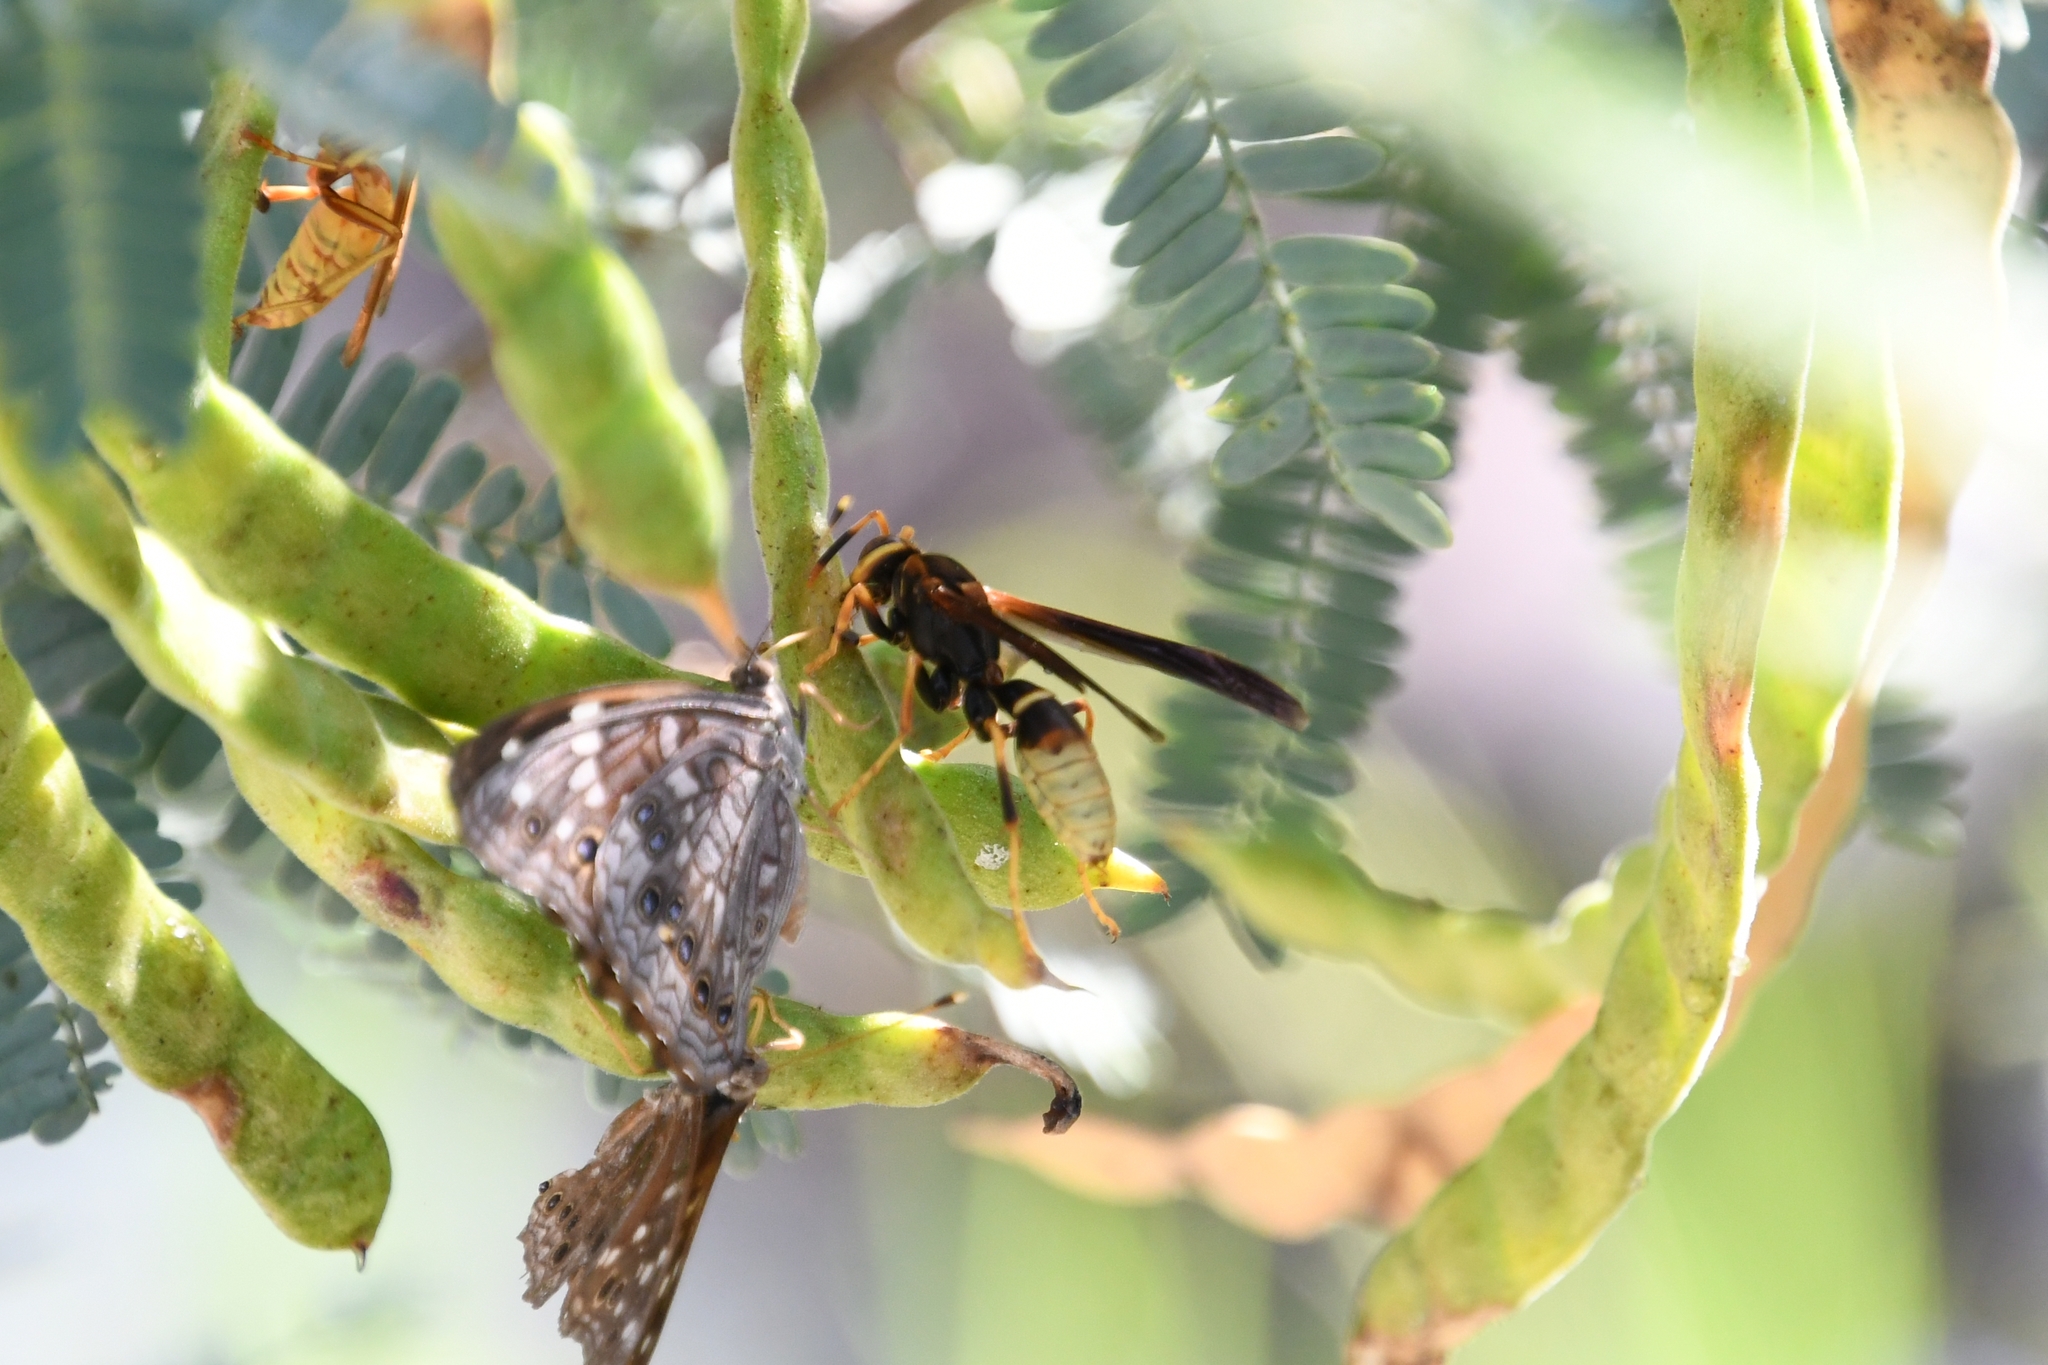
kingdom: Animalia
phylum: Arthropoda
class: Insecta
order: Hymenoptera
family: Eumenidae
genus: Polistes
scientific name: Polistes comanchus
